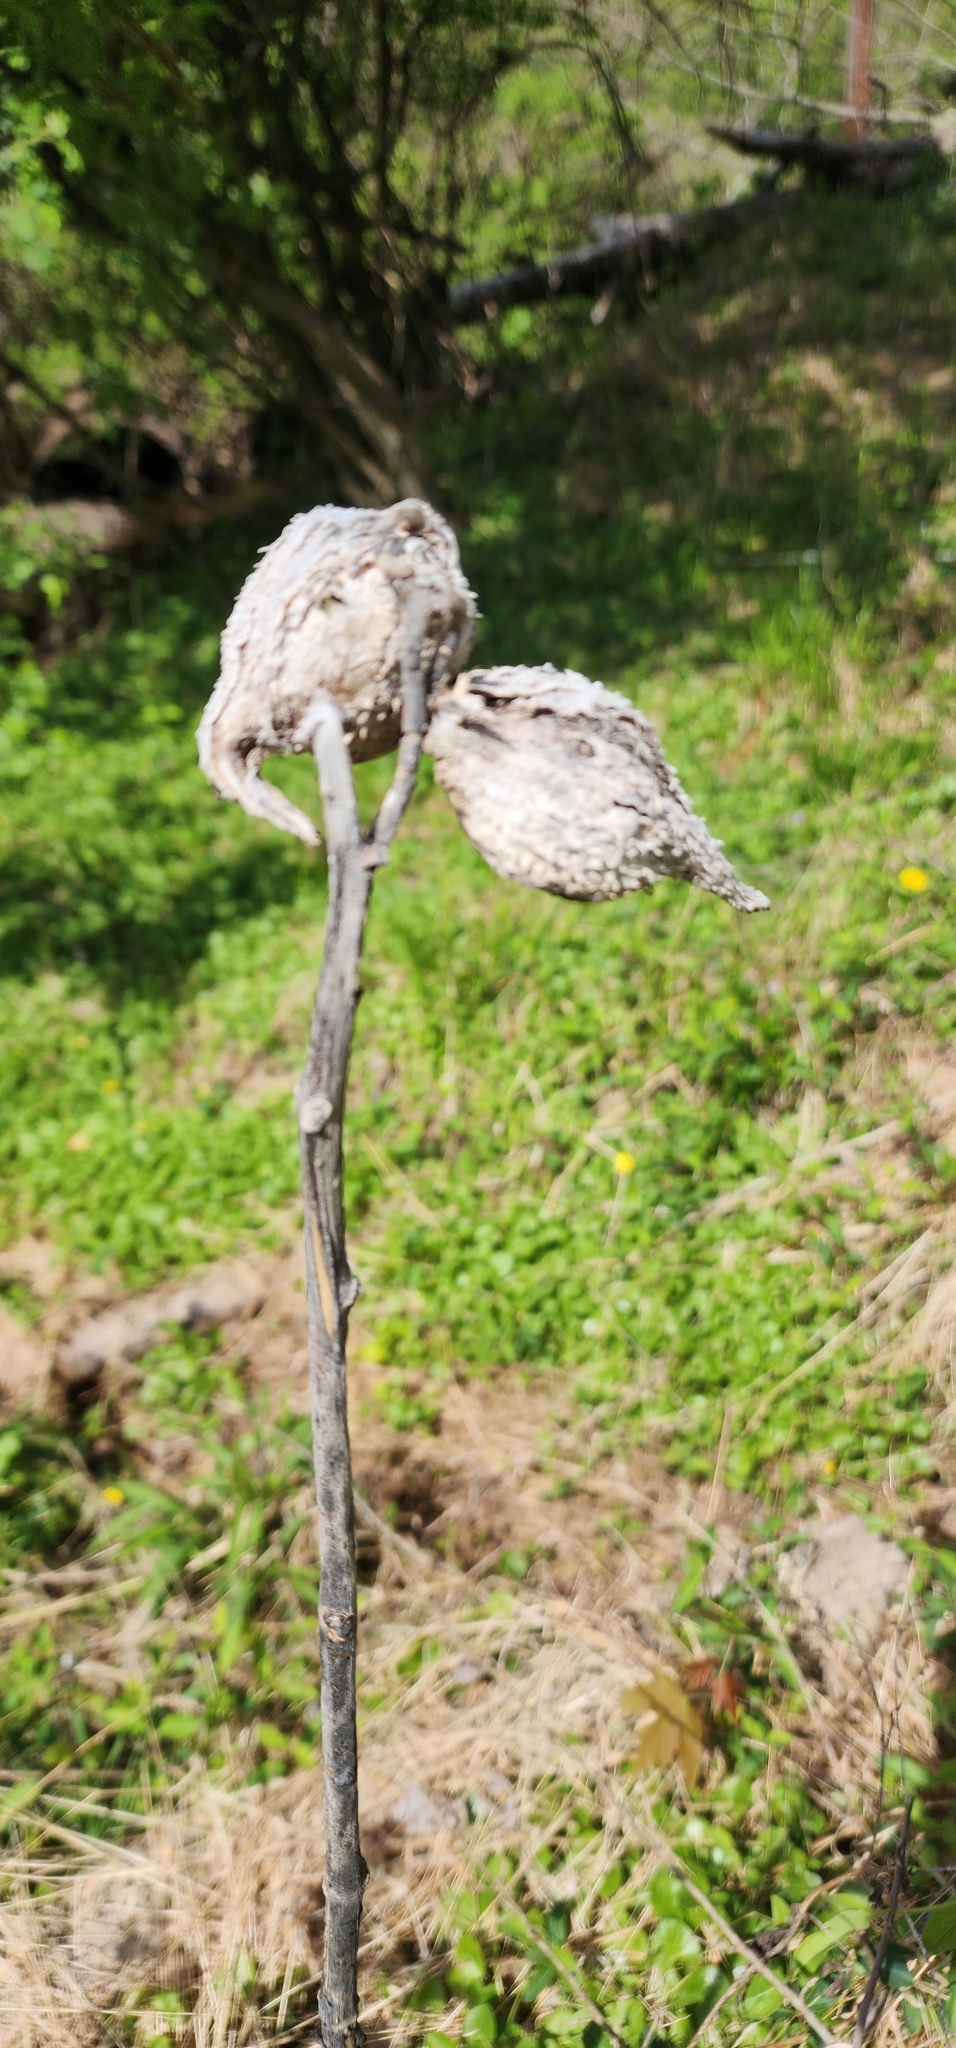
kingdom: Plantae
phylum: Tracheophyta
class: Magnoliopsida
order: Gentianales
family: Apocynaceae
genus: Asclepias
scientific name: Asclepias syriaca
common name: Common milkweed
